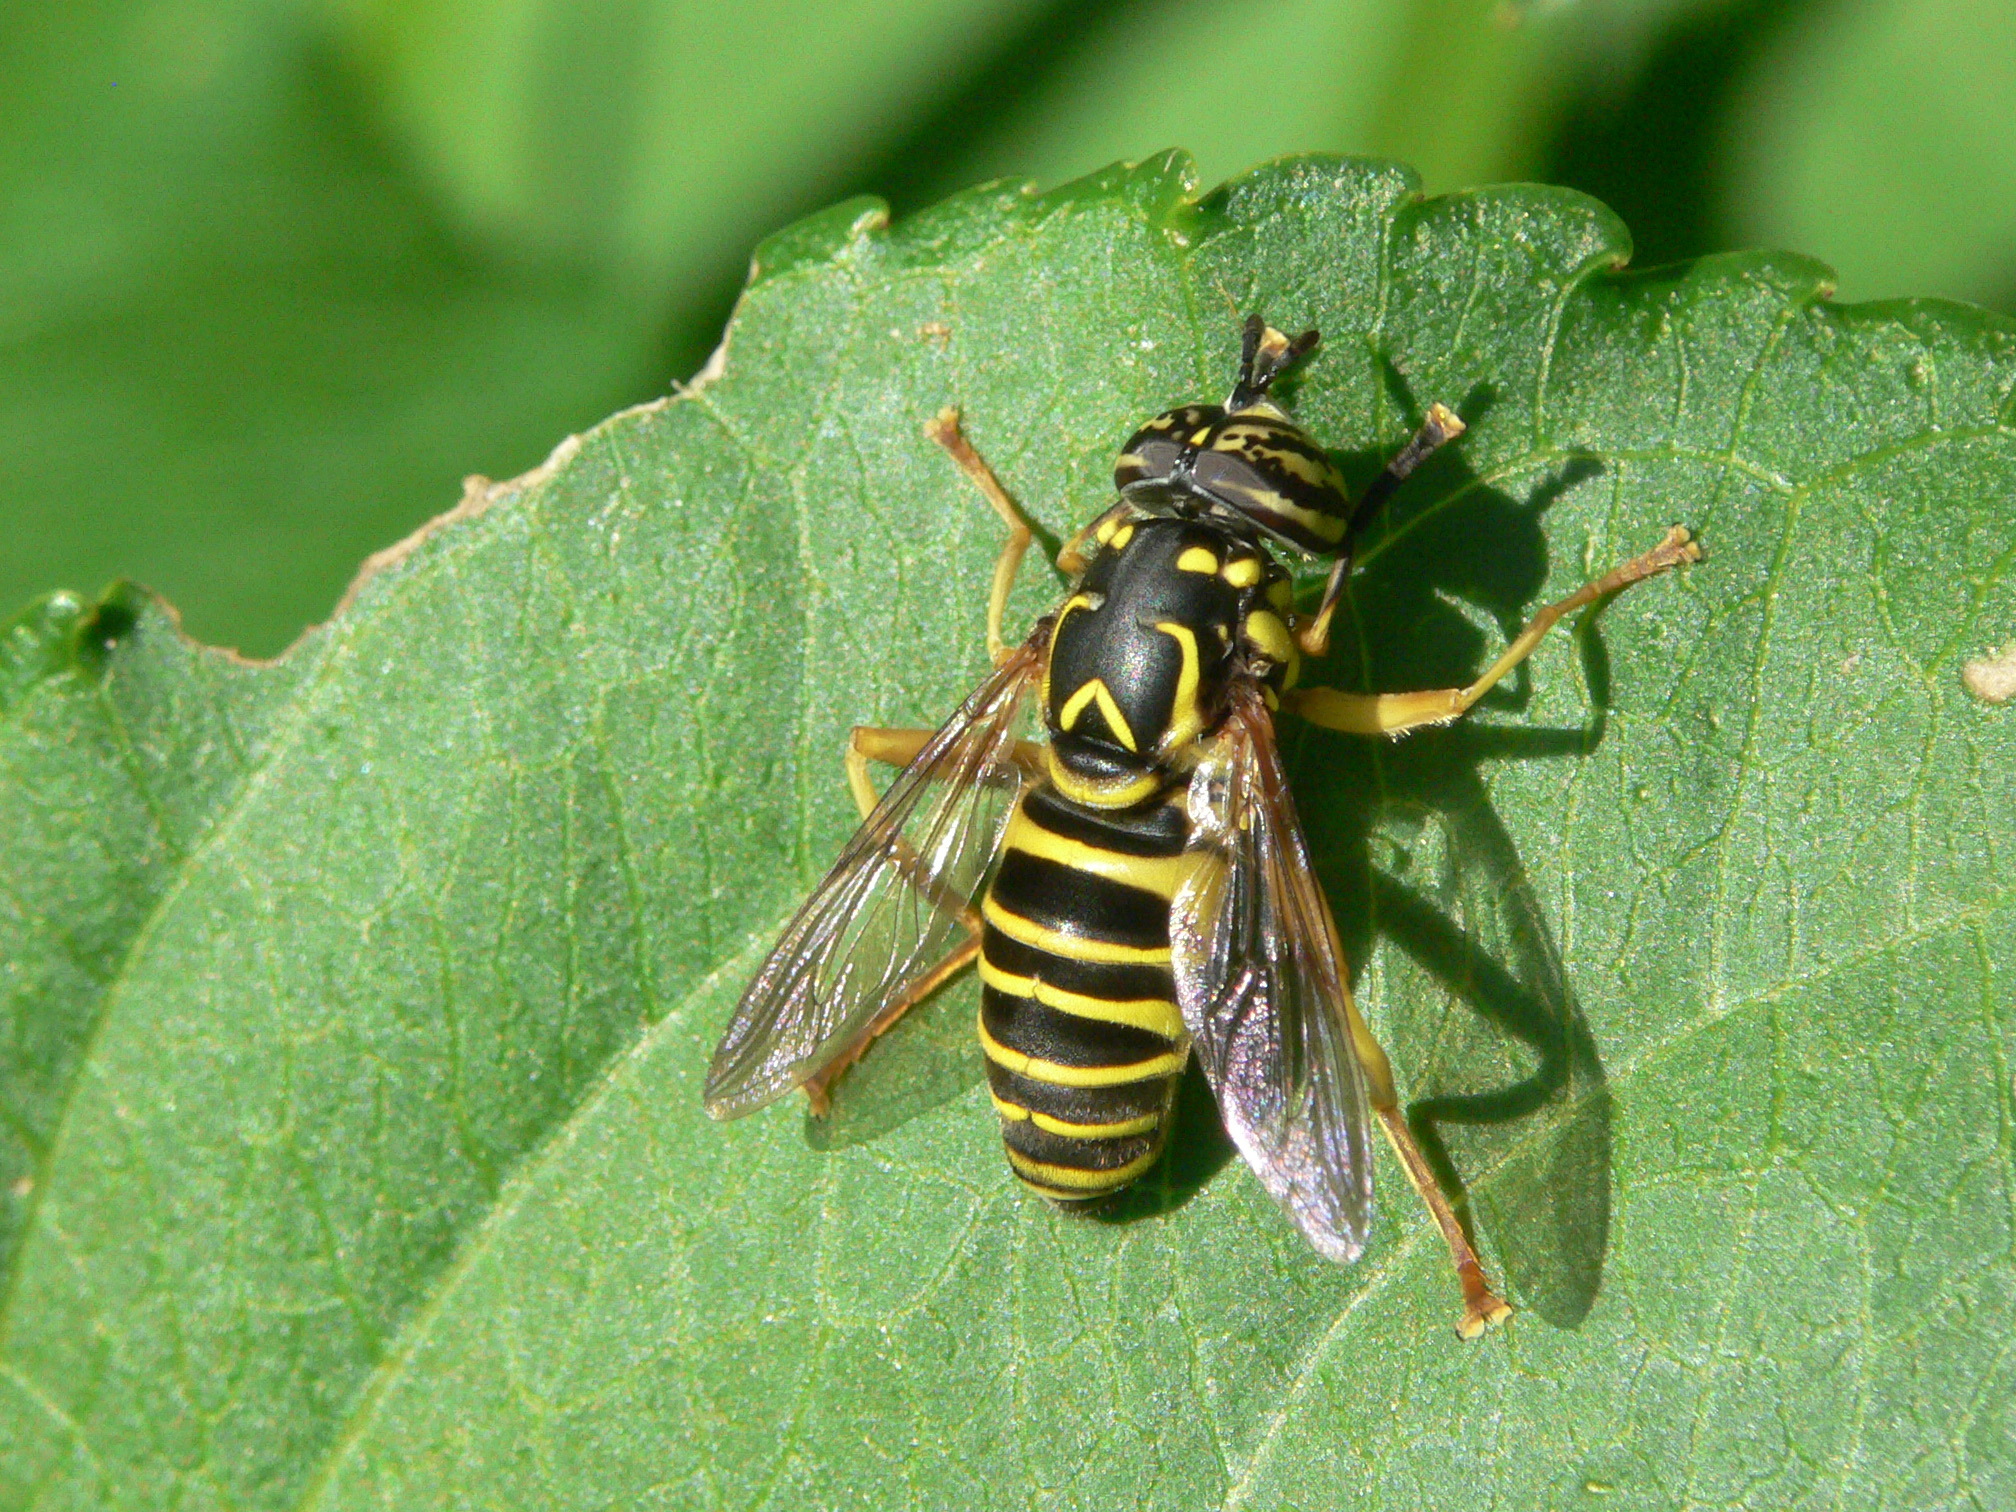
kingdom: Animalia
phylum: Arthropoda
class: Insecta
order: Diptera
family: Syrphidae
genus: Spilomyia
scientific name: Spilomyia longicornis
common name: Eastern hornet fly
